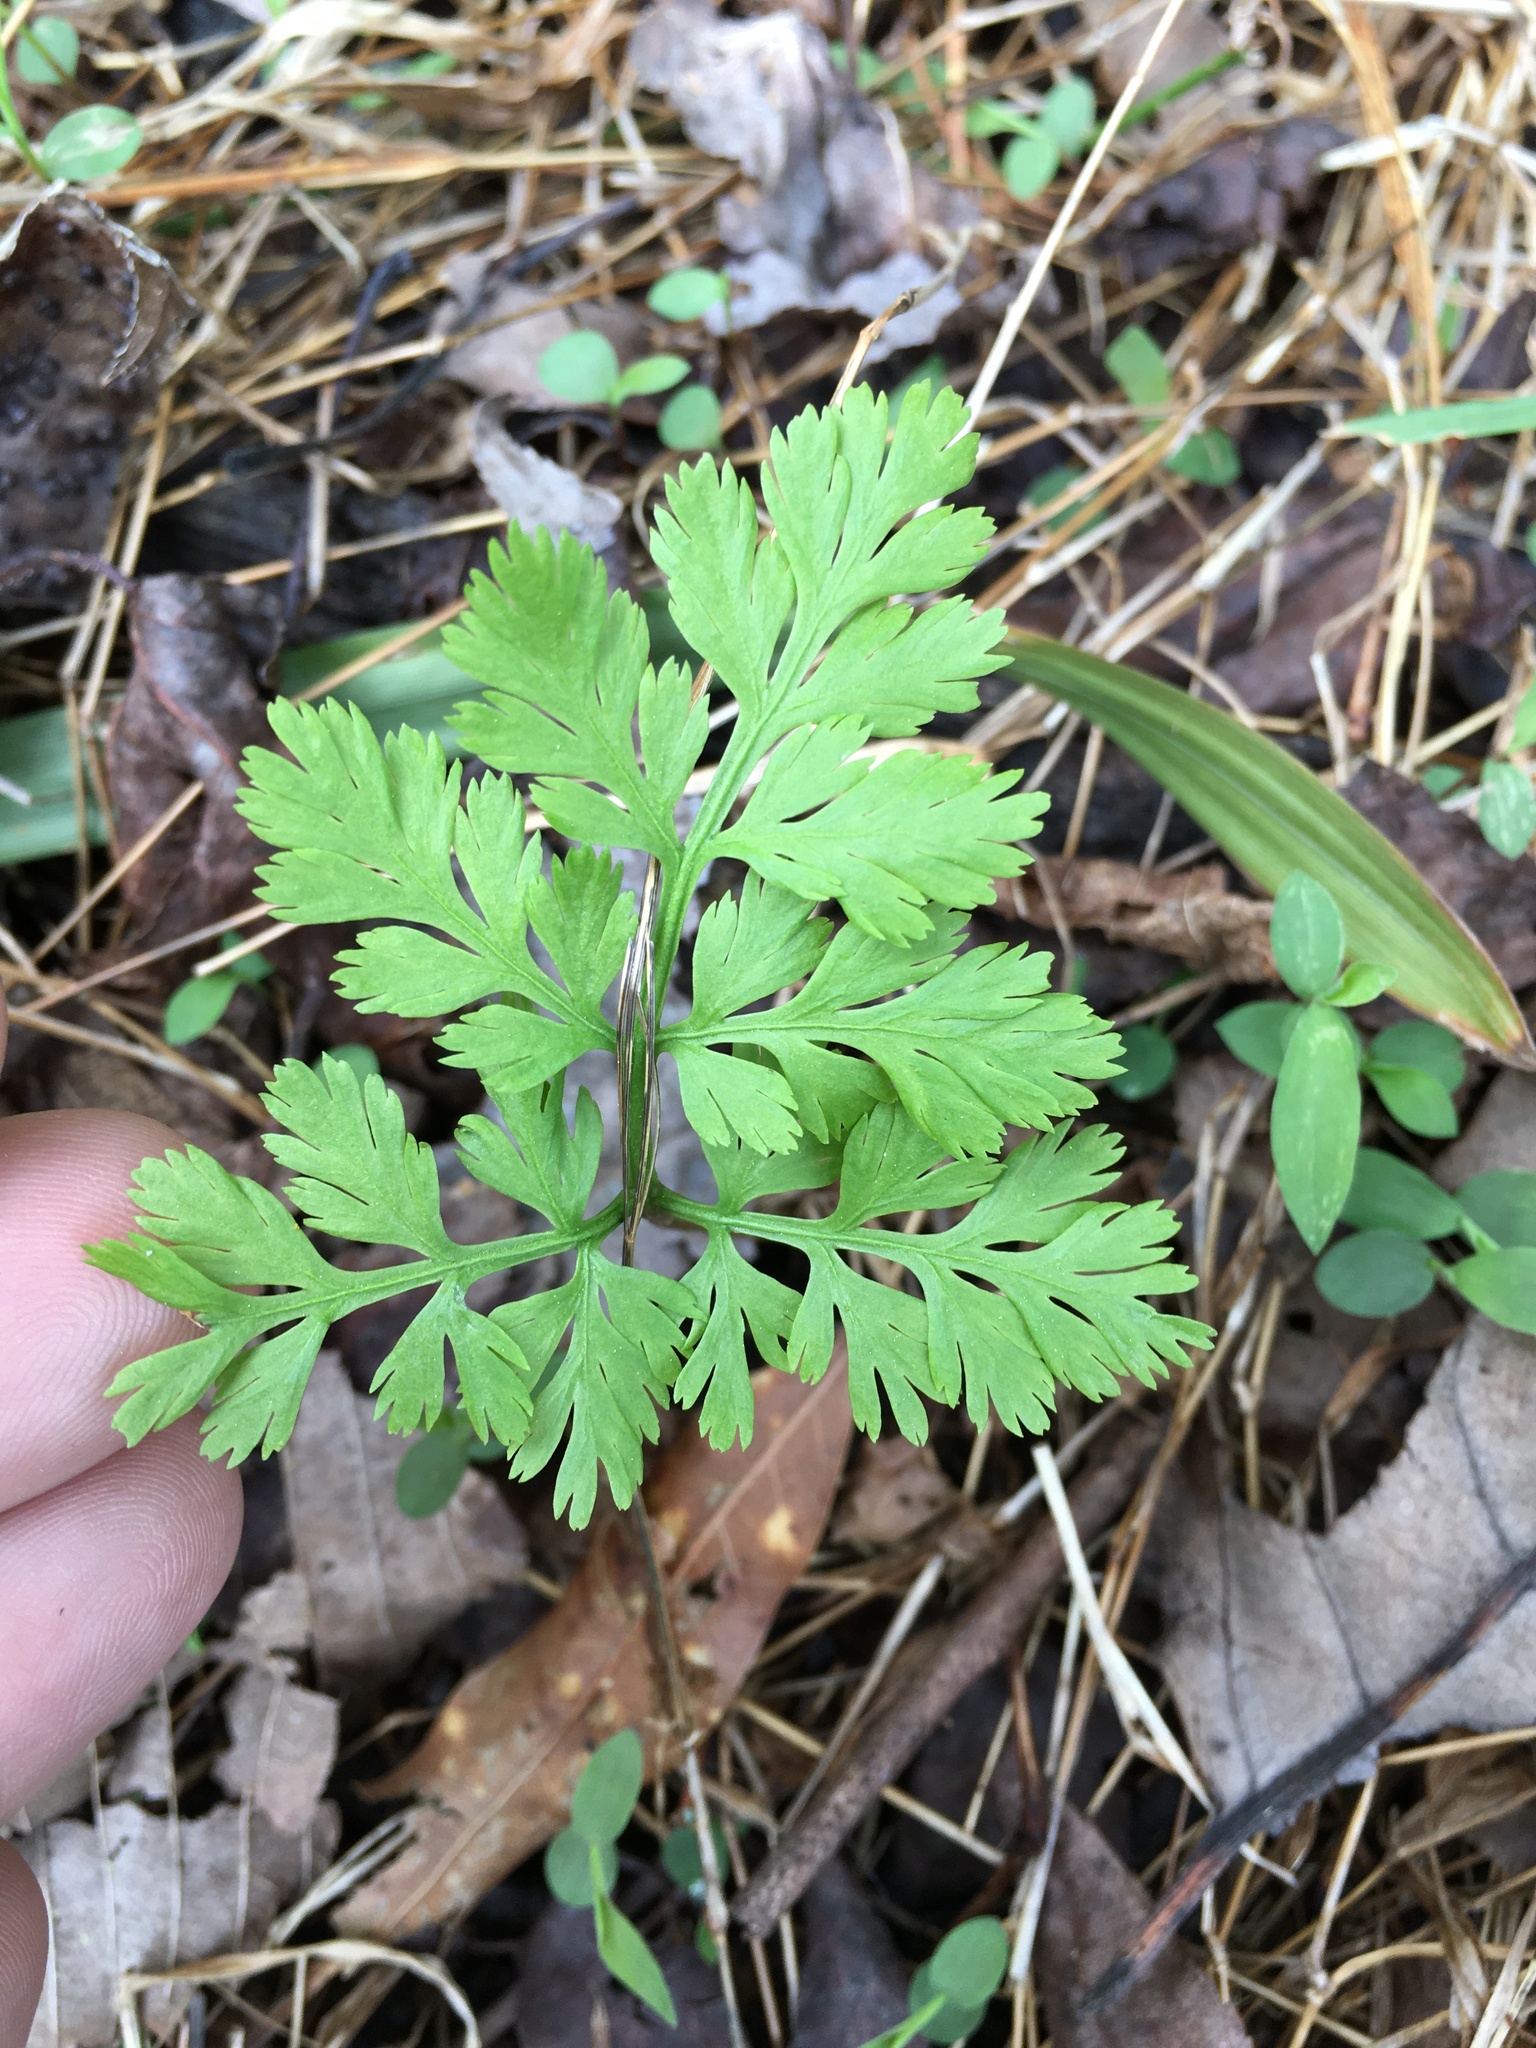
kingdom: Plantae
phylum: Tracheophyta
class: Polypodiopsida
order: Ophioglossales
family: Ophioglossaceae
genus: Botrypus
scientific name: Botrypus virginianus
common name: Common grapefern
